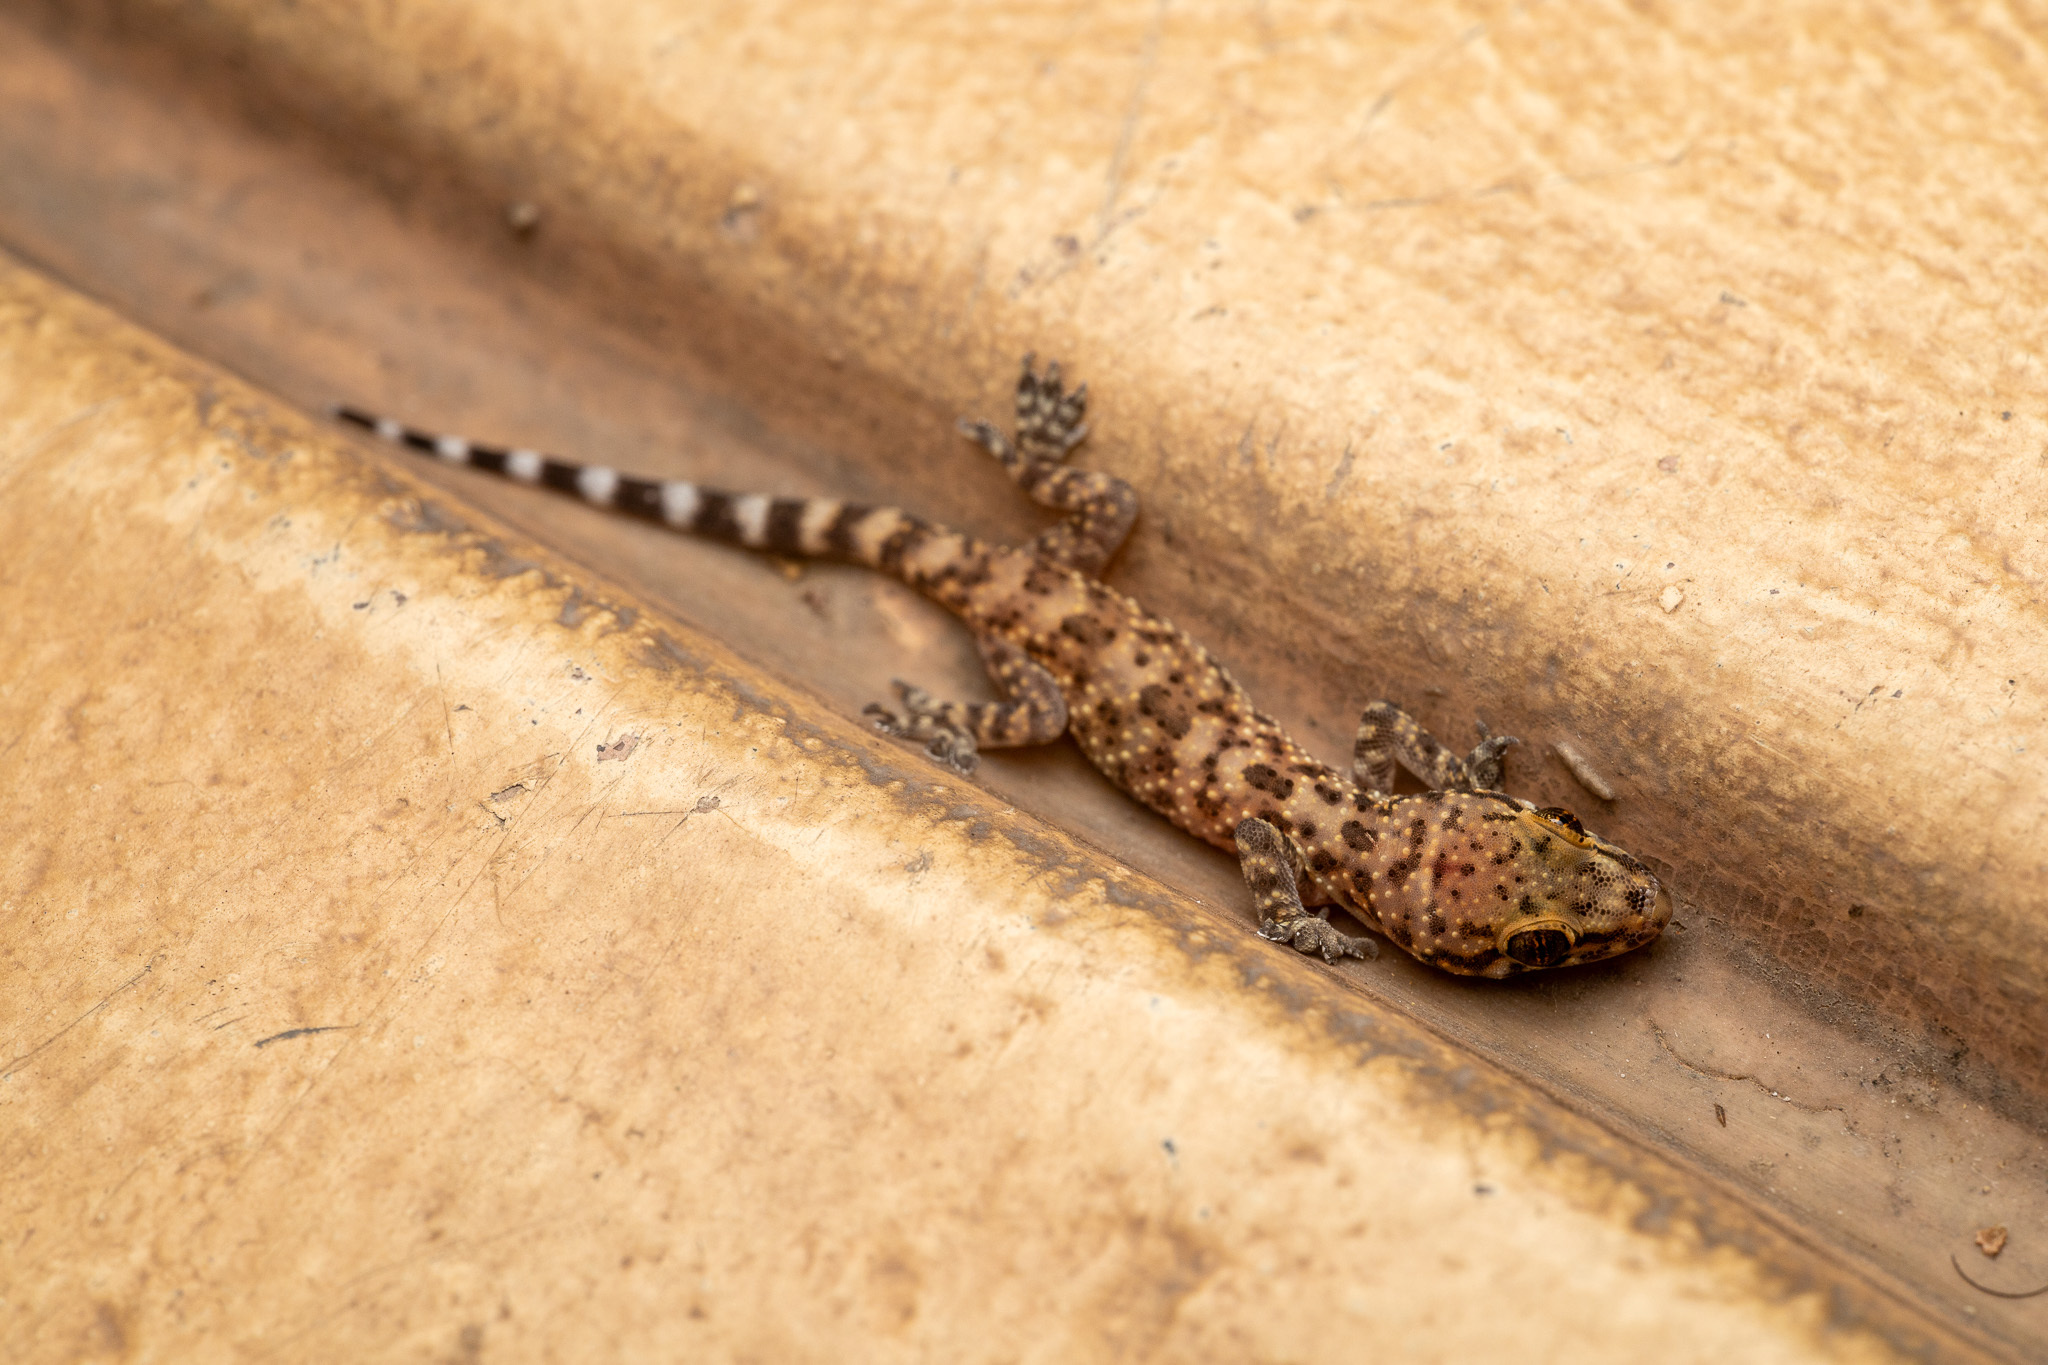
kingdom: Animalia
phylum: Chordata
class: Squamata
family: Gekkonidae
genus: Hemidactylus
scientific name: Hemidactylus turcicus
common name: Turkish gecko
